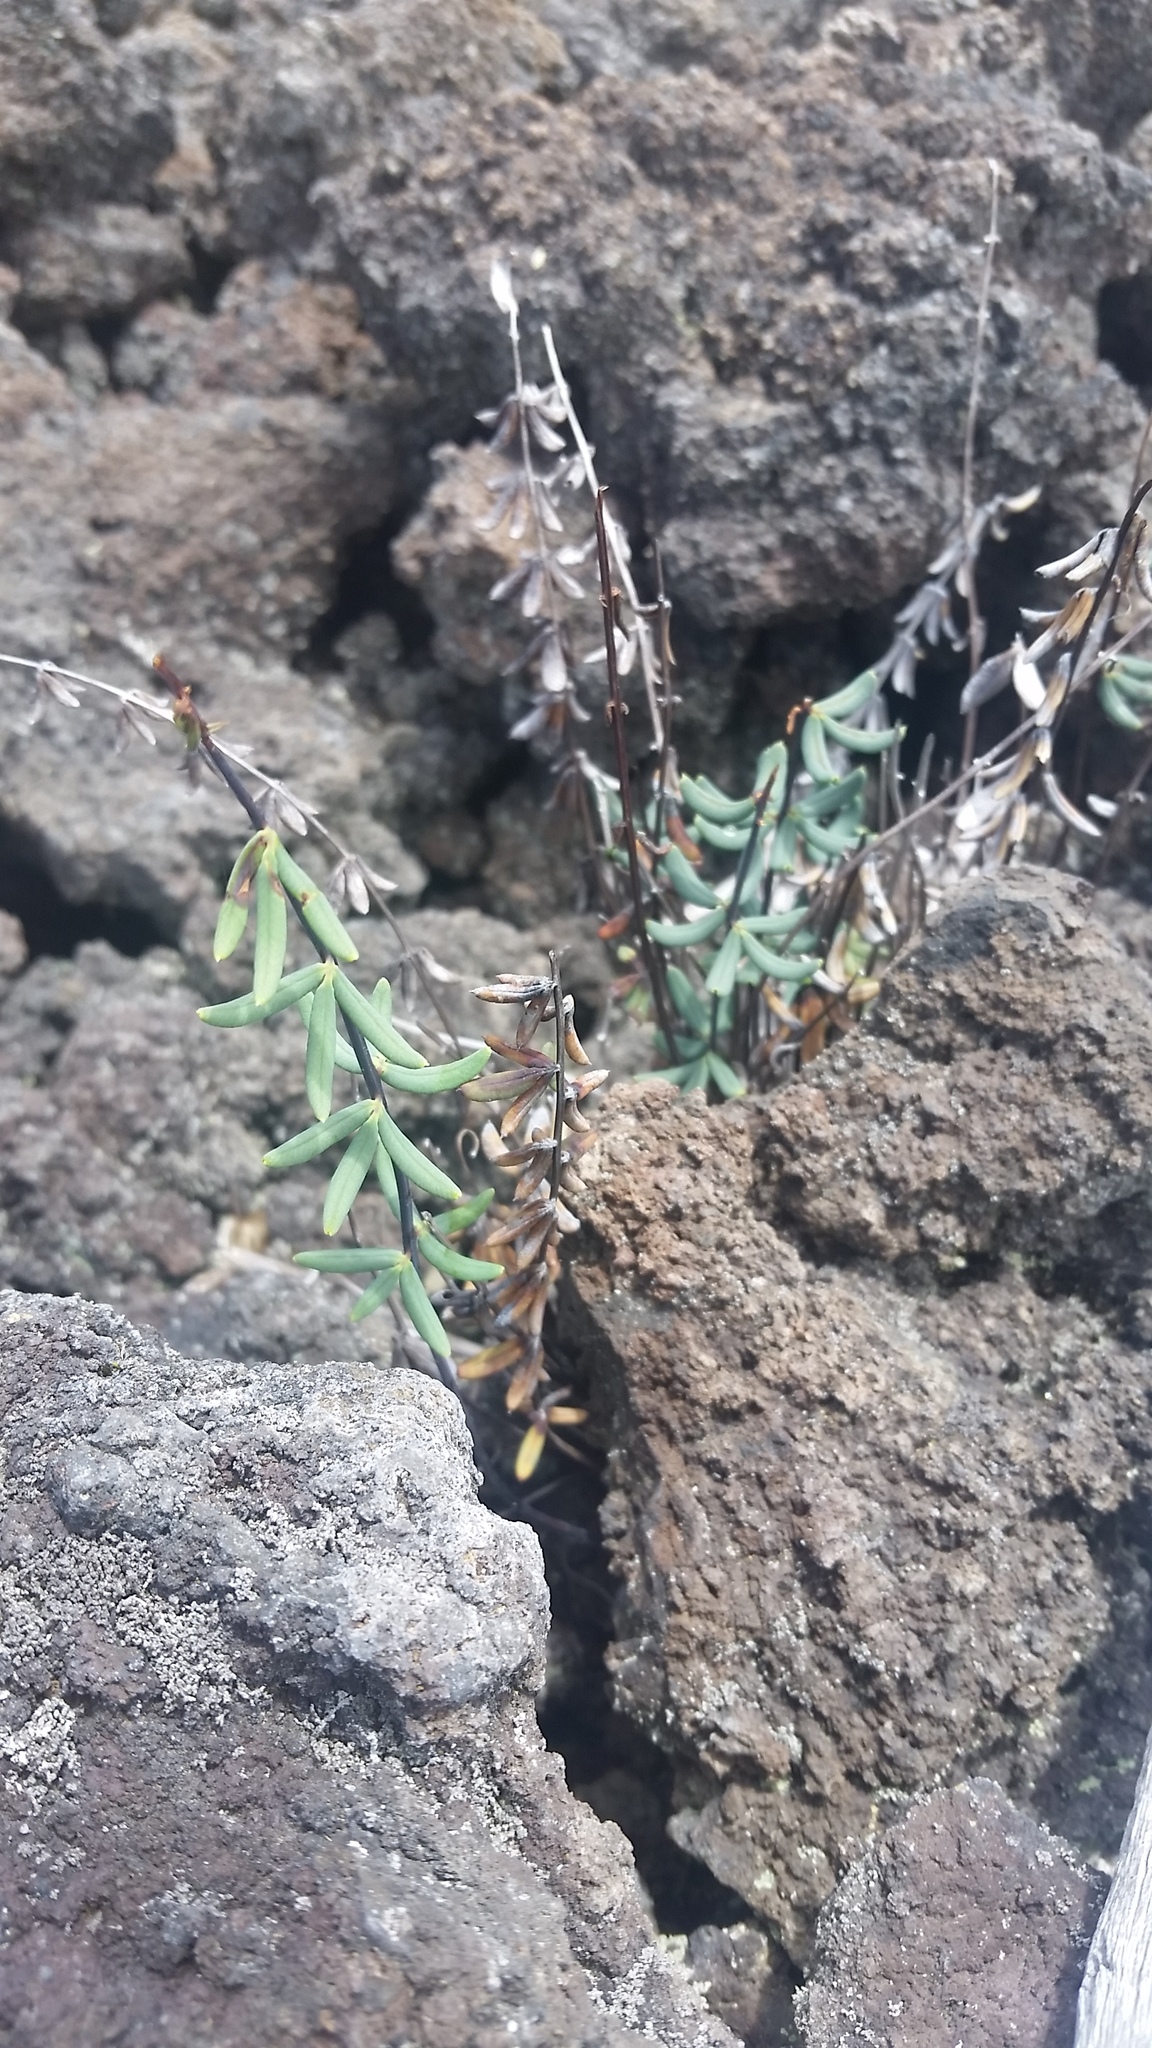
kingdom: Plantae
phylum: Tracheophyta
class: Polypodiopsida
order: Polypodiales
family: Pteridaceae
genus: Pellaea
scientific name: Pellaea ternifolia
